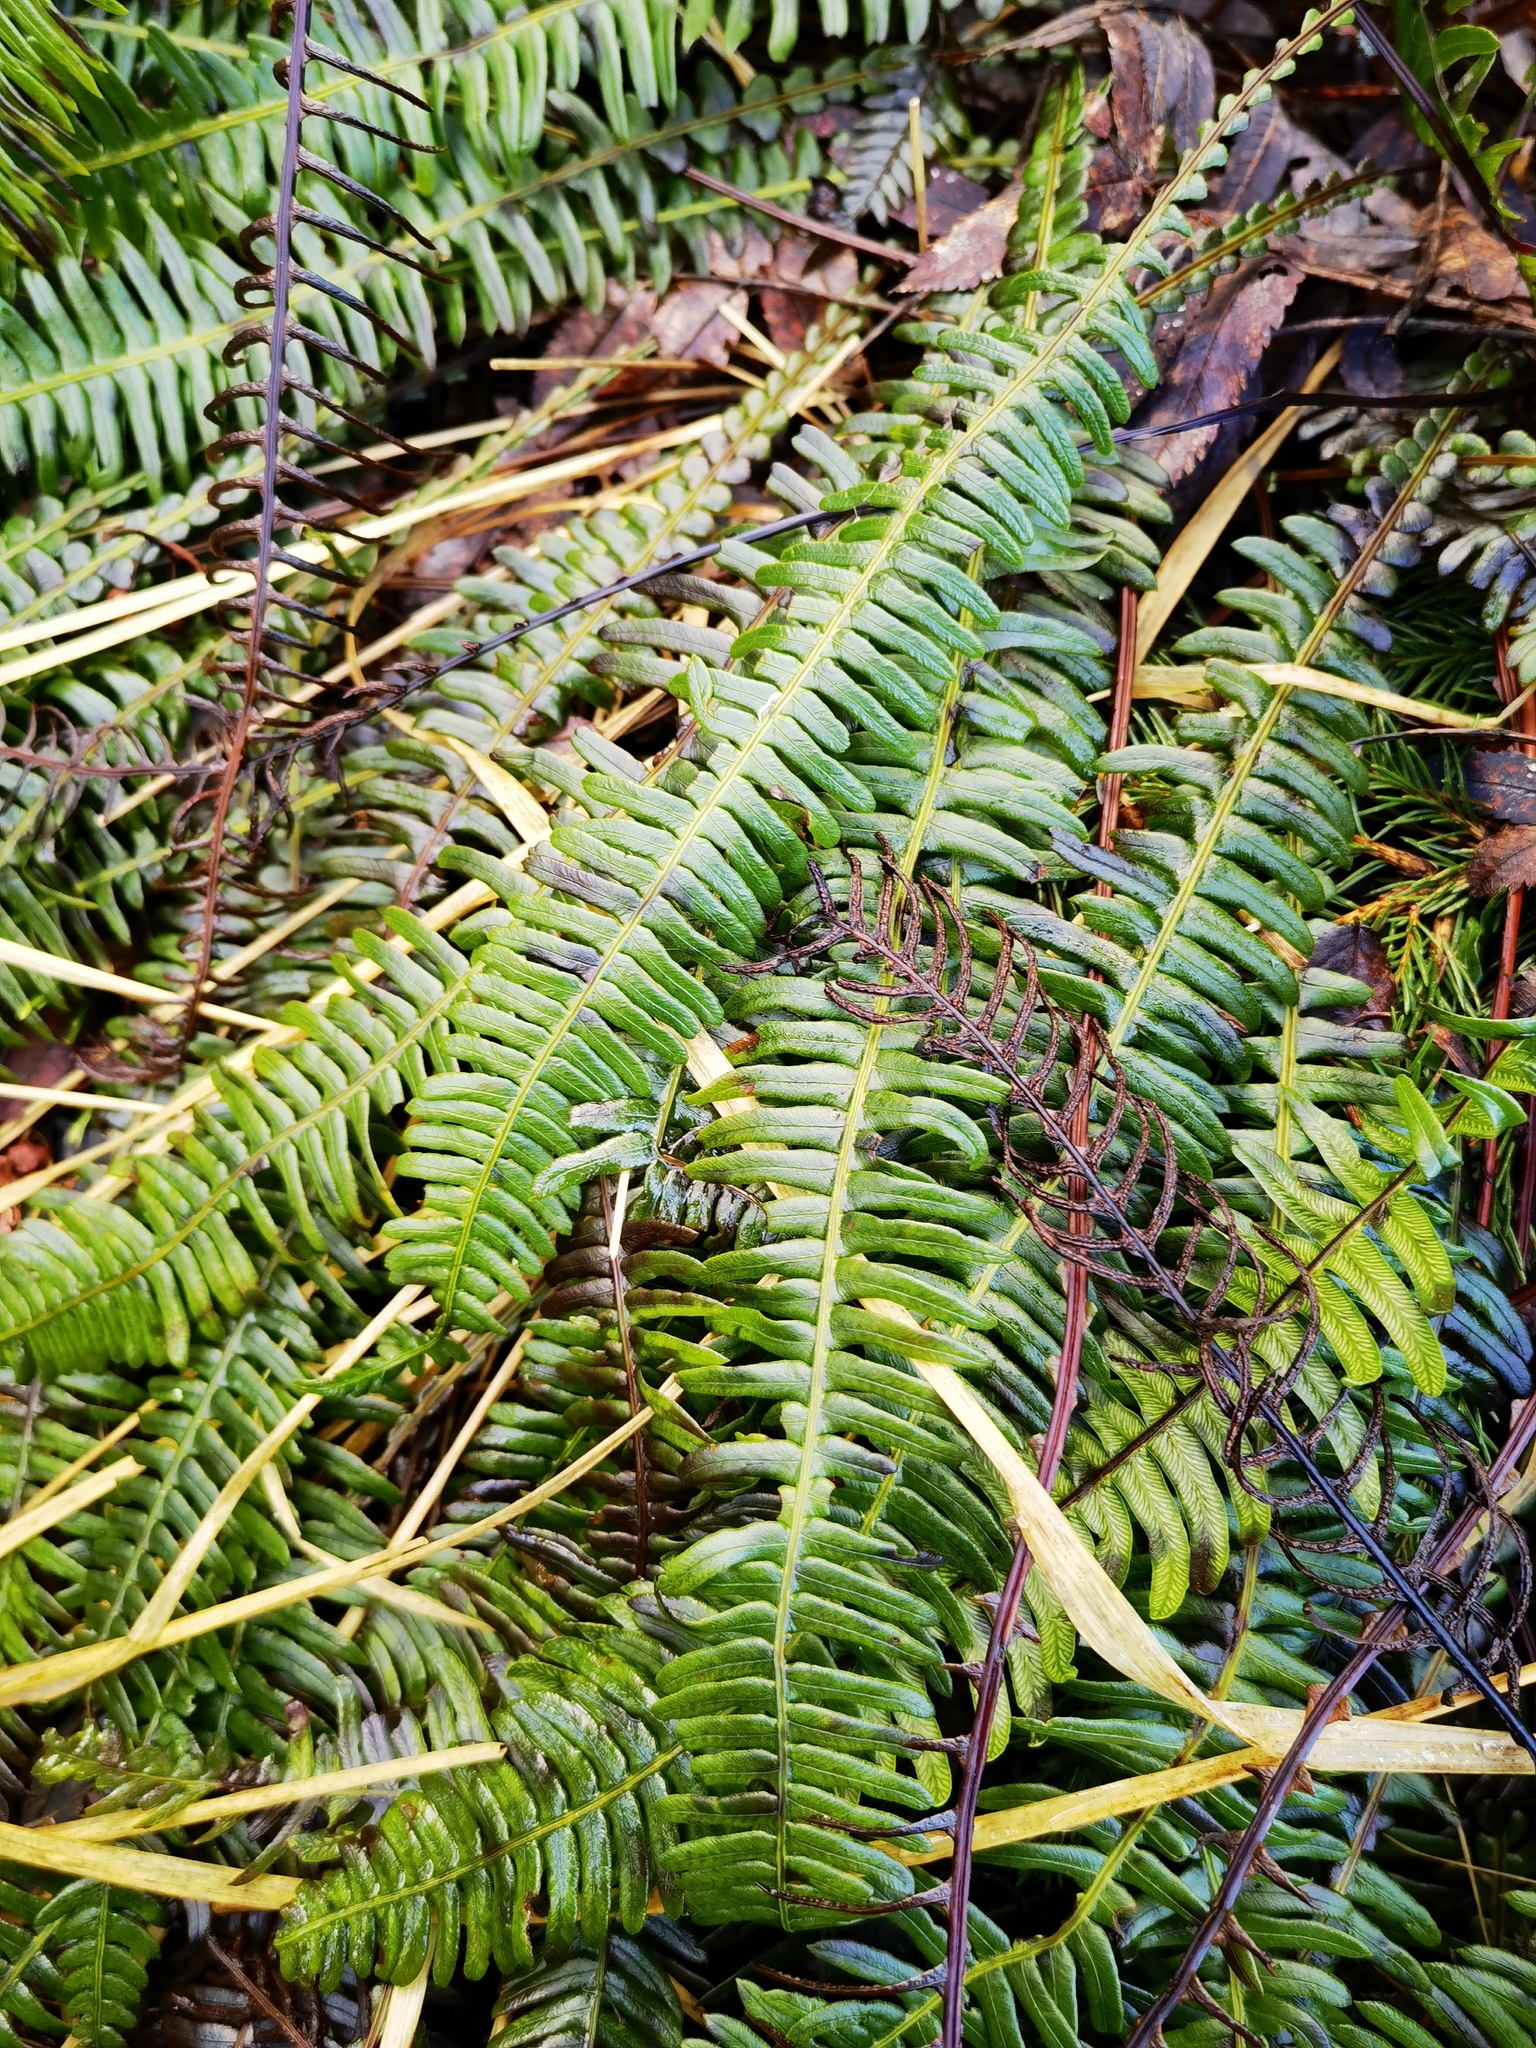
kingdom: Plantae
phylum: Tracheophyta
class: Polypodiopsida
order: Polypodiales
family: Blechnaceae
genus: Struthiopteris
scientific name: Struthiopteris spicant
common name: Deer fern
